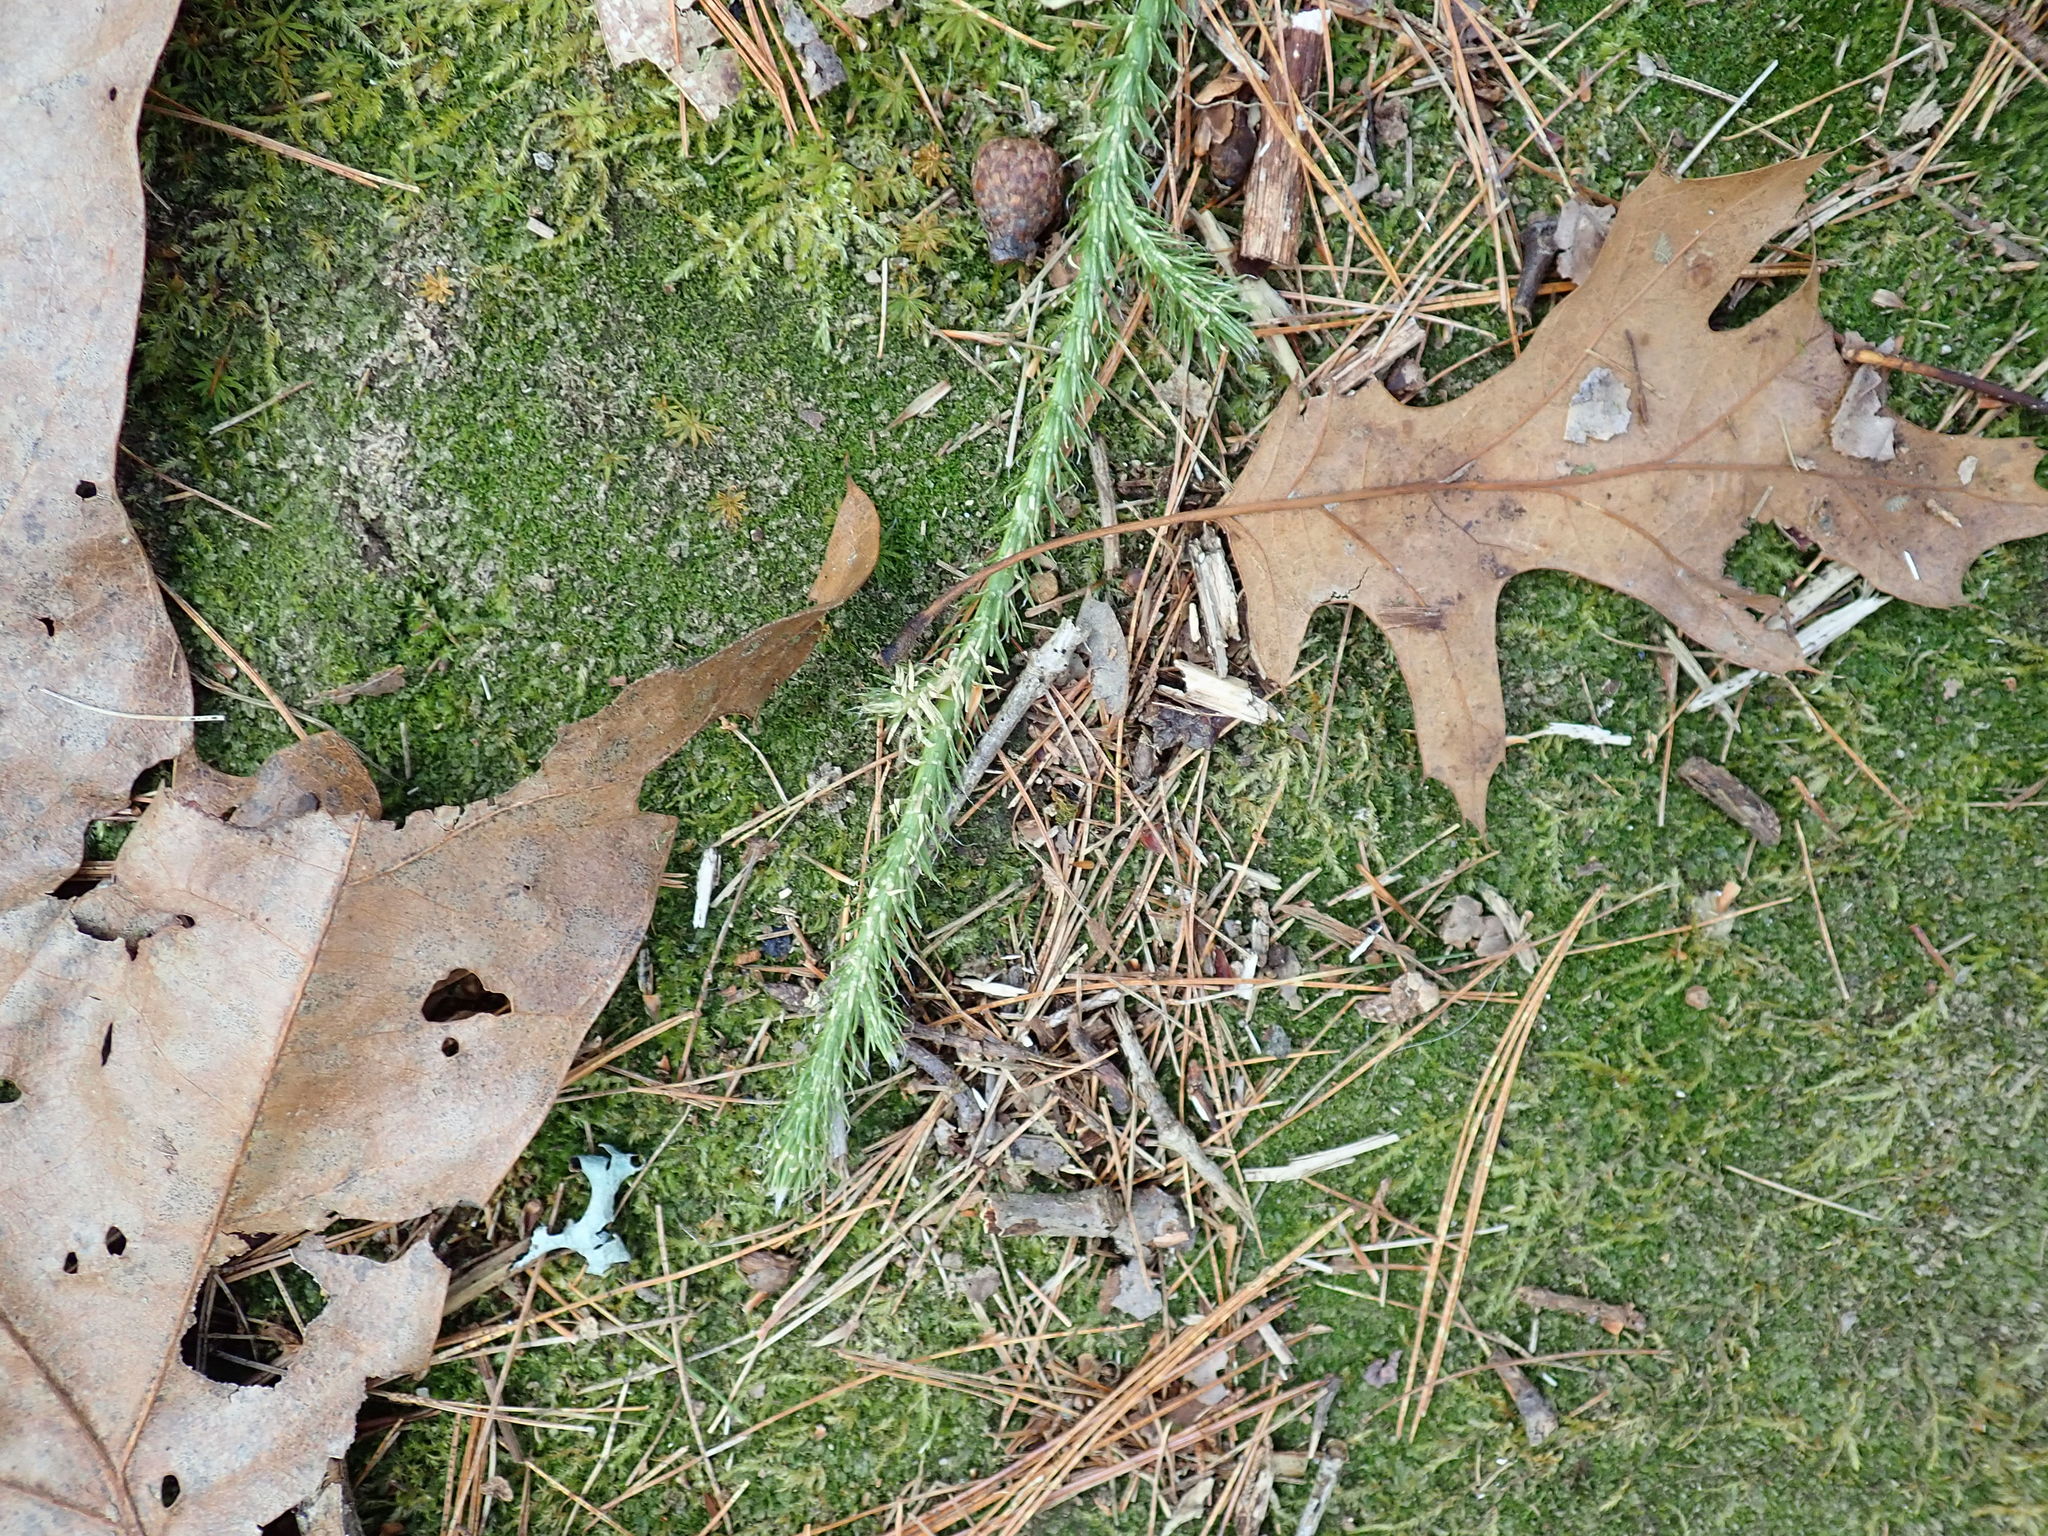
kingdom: Plantae
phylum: Tracheophyta
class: Lycopodiopsida
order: Lycopodiales
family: Lycopodiaceae
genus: Lycopodium
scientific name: Lycopodium clavatum
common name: Stag's-horn clubmoss
